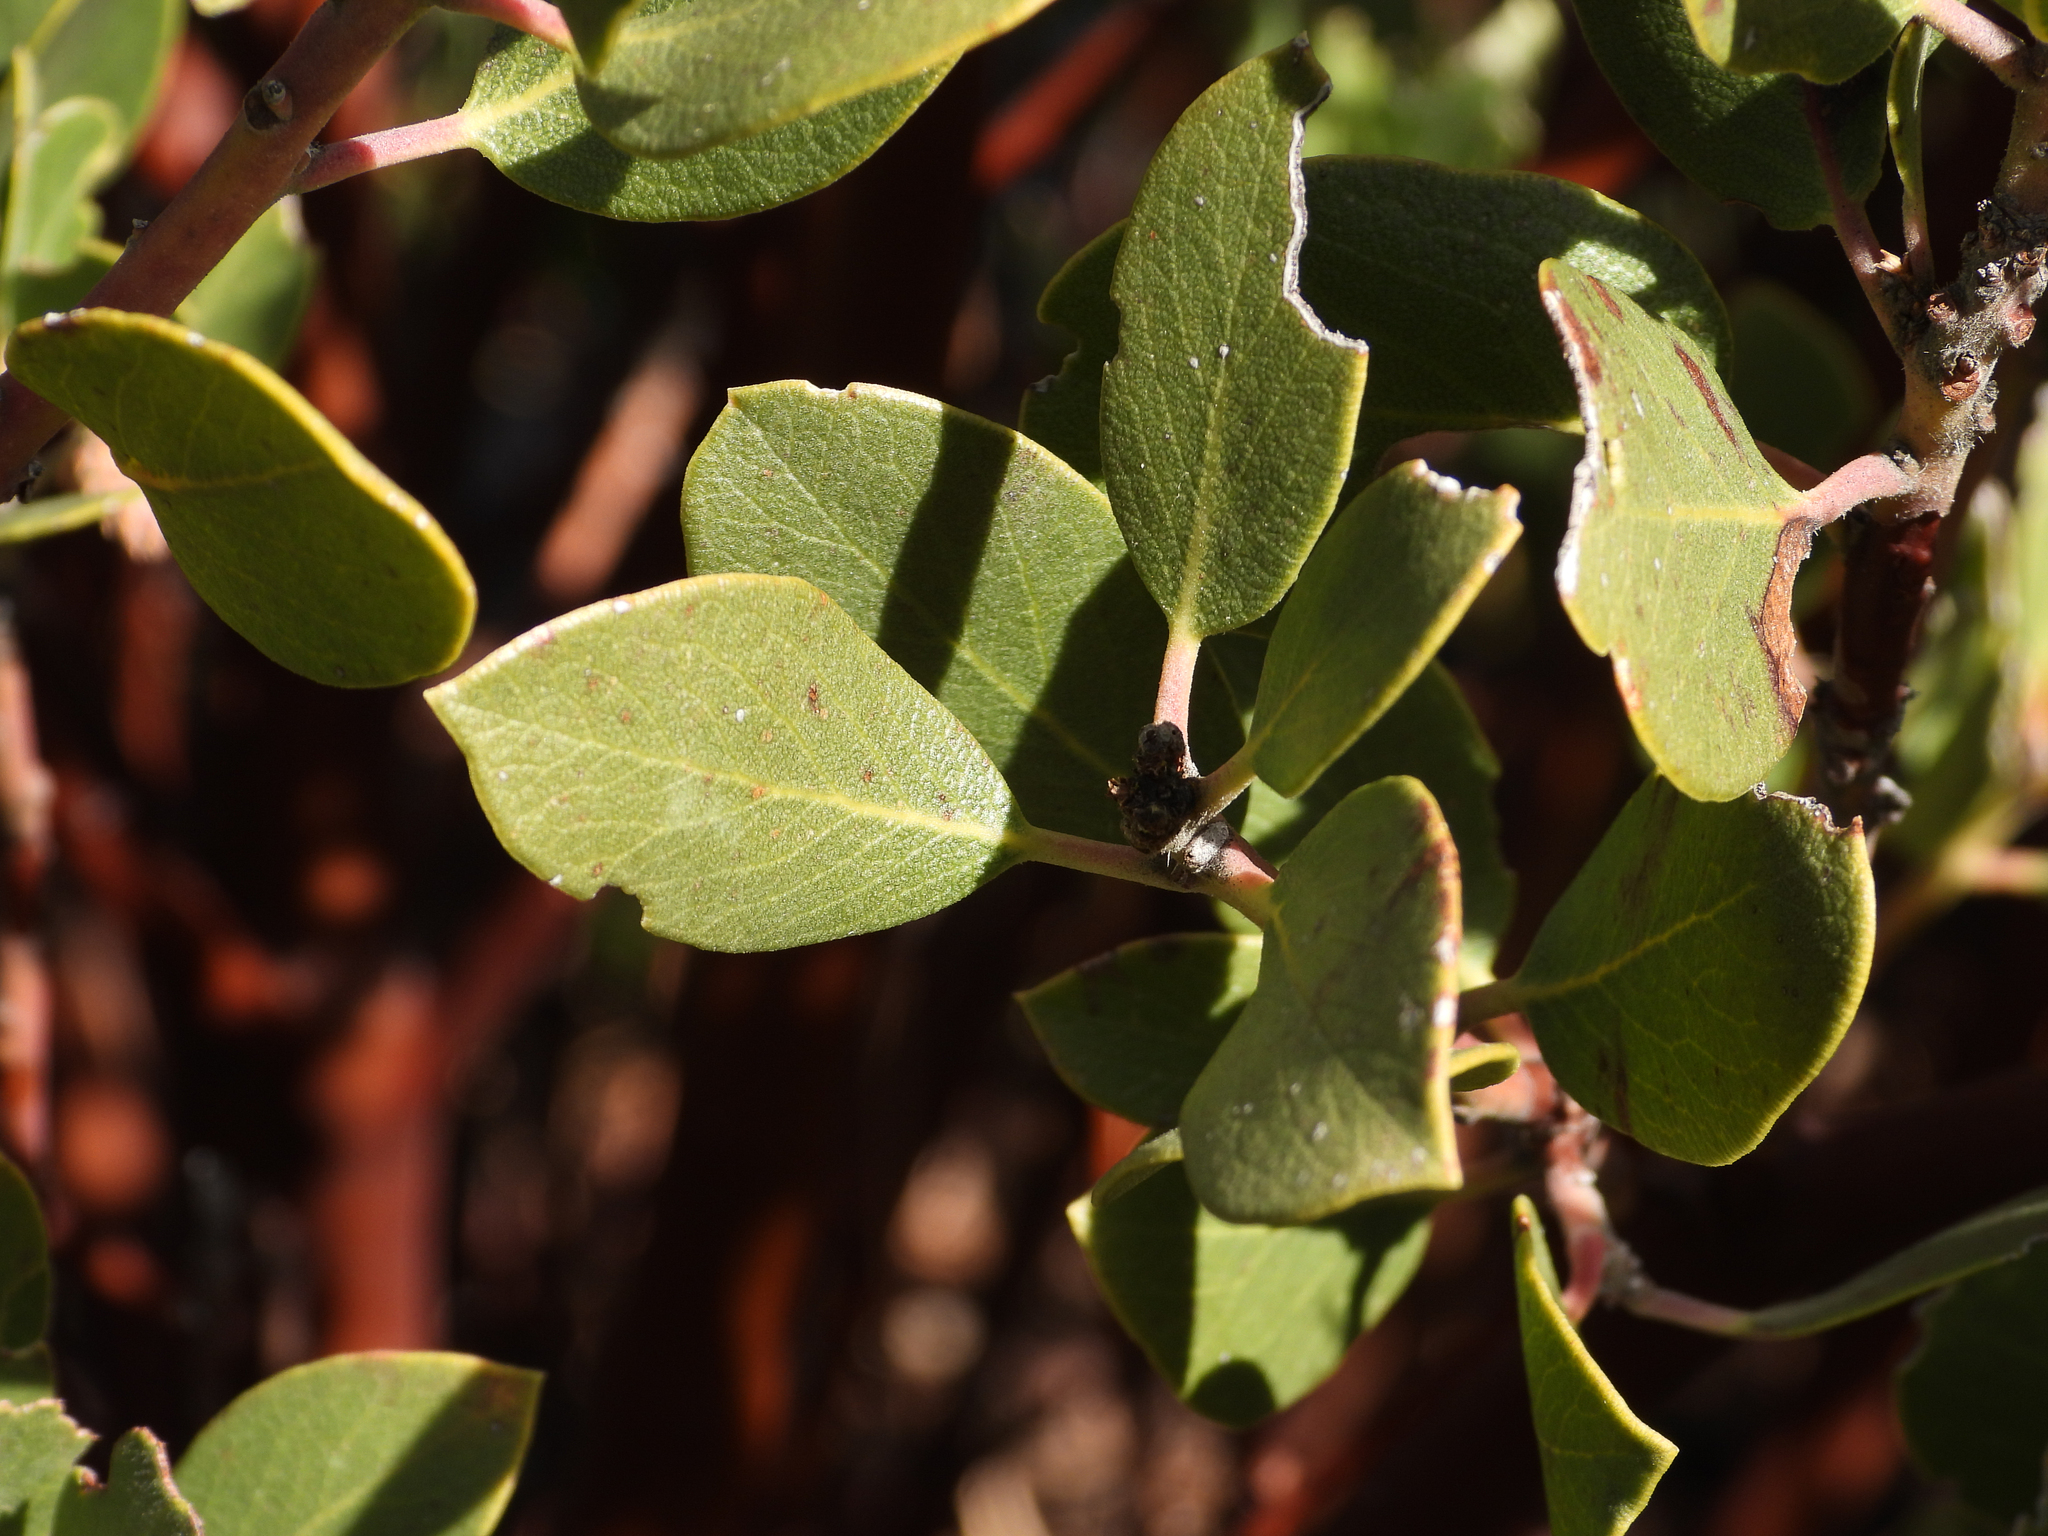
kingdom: Plantae
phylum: Tracheophyta
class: Magnoliopsida
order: Ericales
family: Ericaceae
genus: Arctostaphylos
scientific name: Arctostaphylos glandulosa
